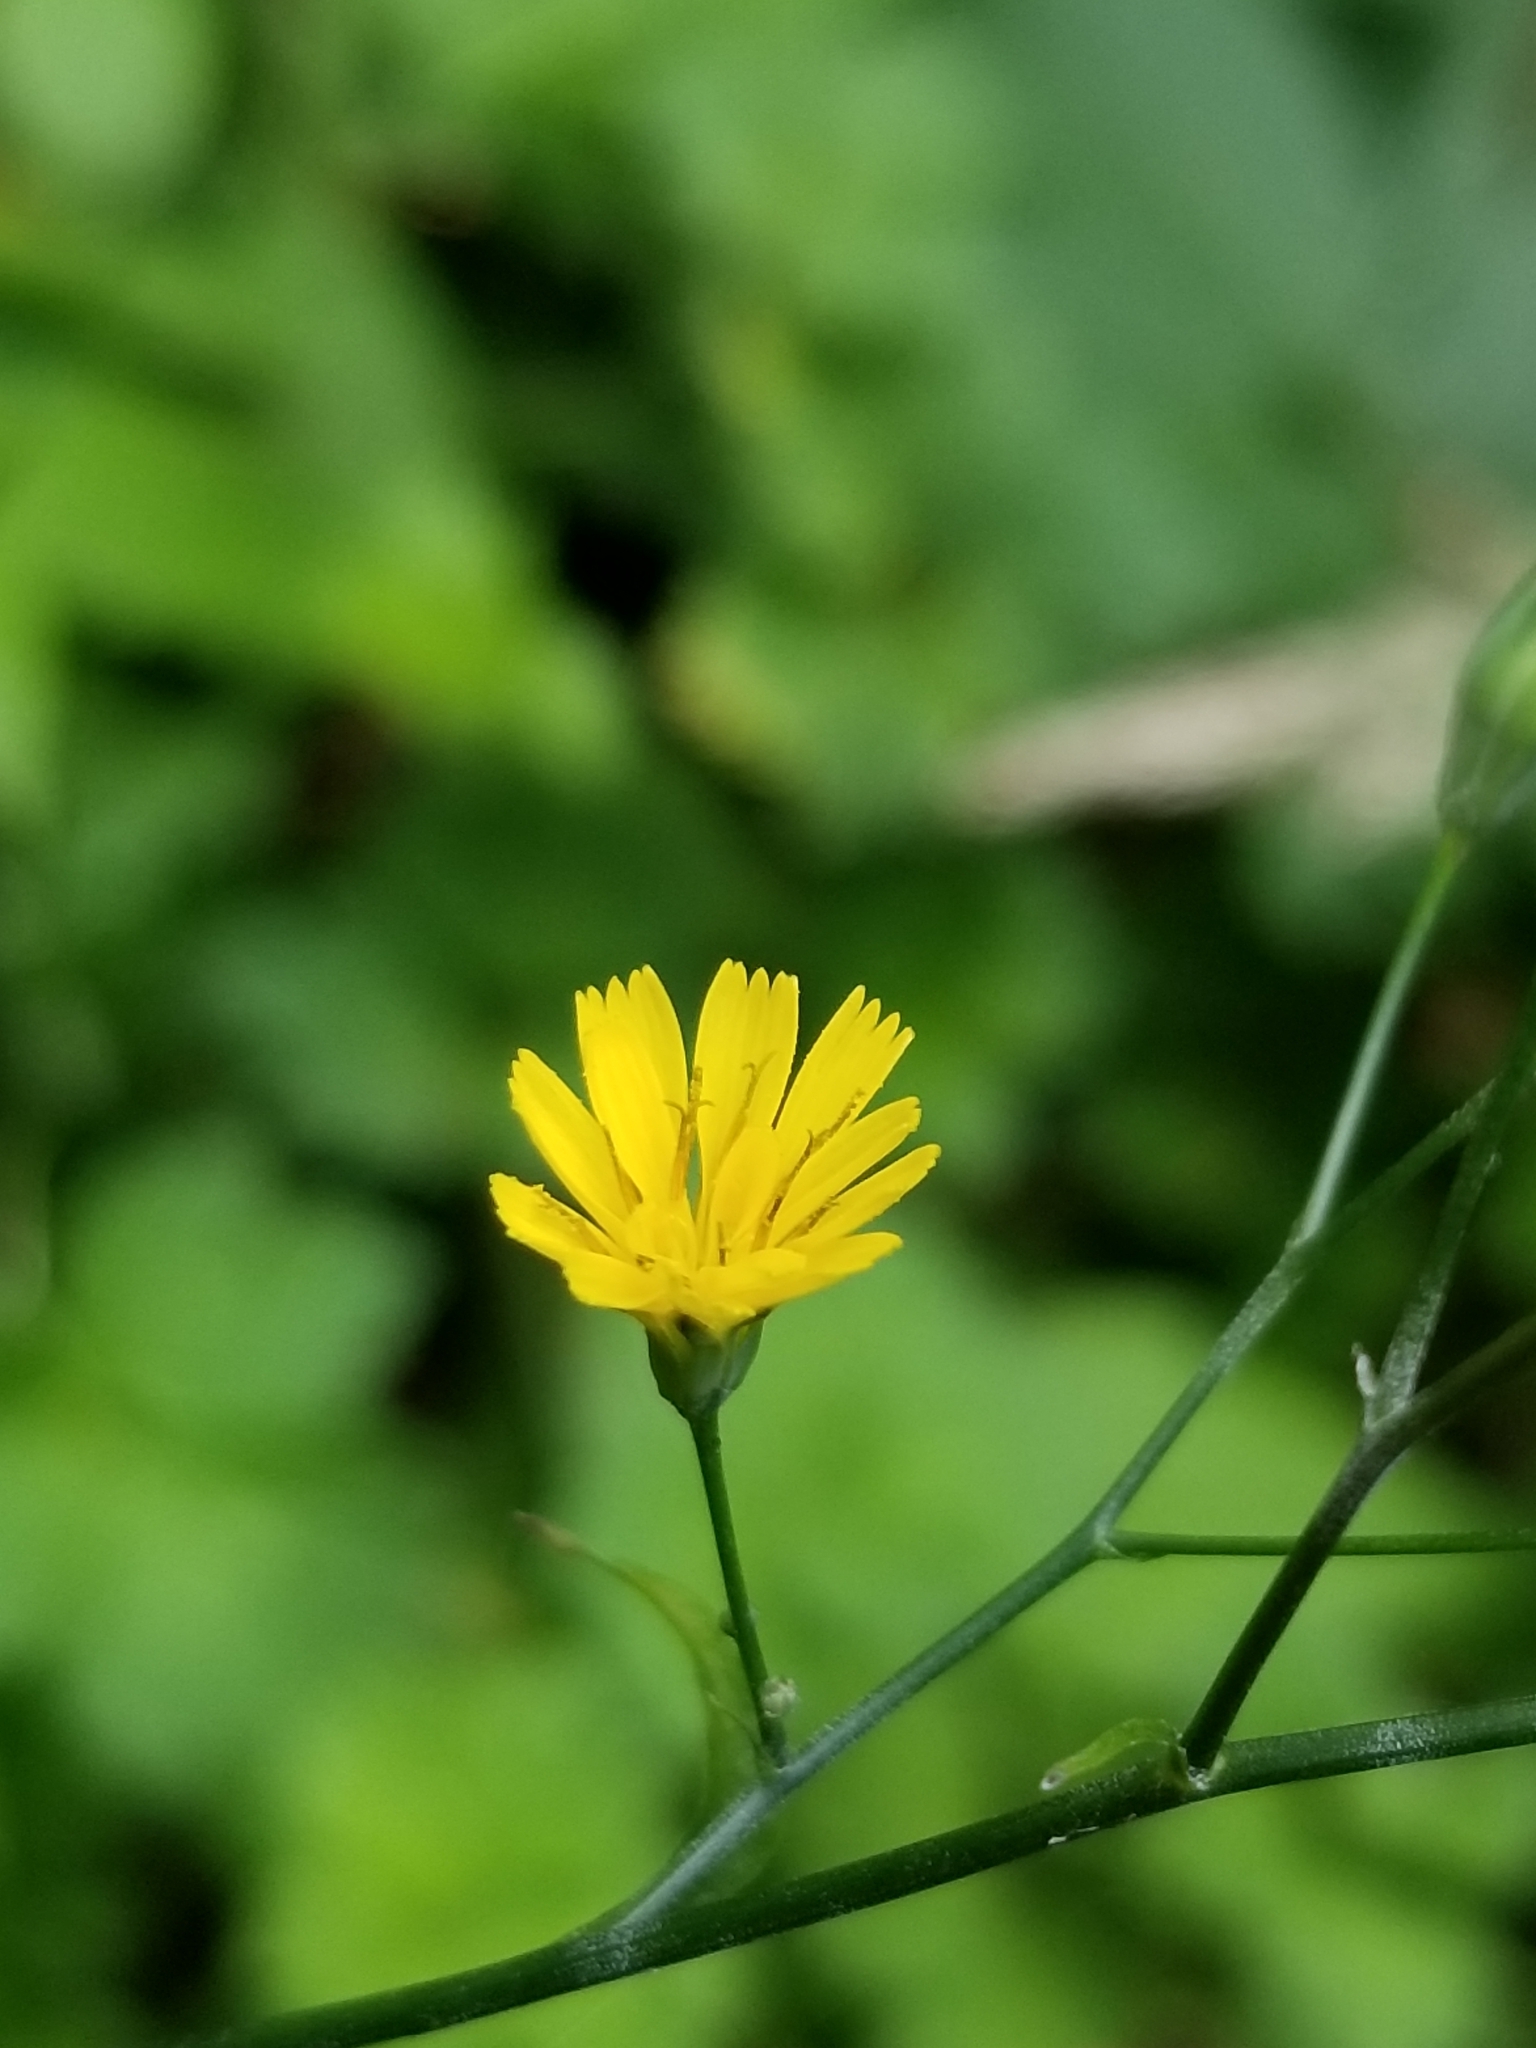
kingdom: Plantae
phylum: Tracheophyta
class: Magnoliopsida
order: Asterales
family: Asteraceae
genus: Lapsana
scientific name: Lapsana communis
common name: Nipplewort
